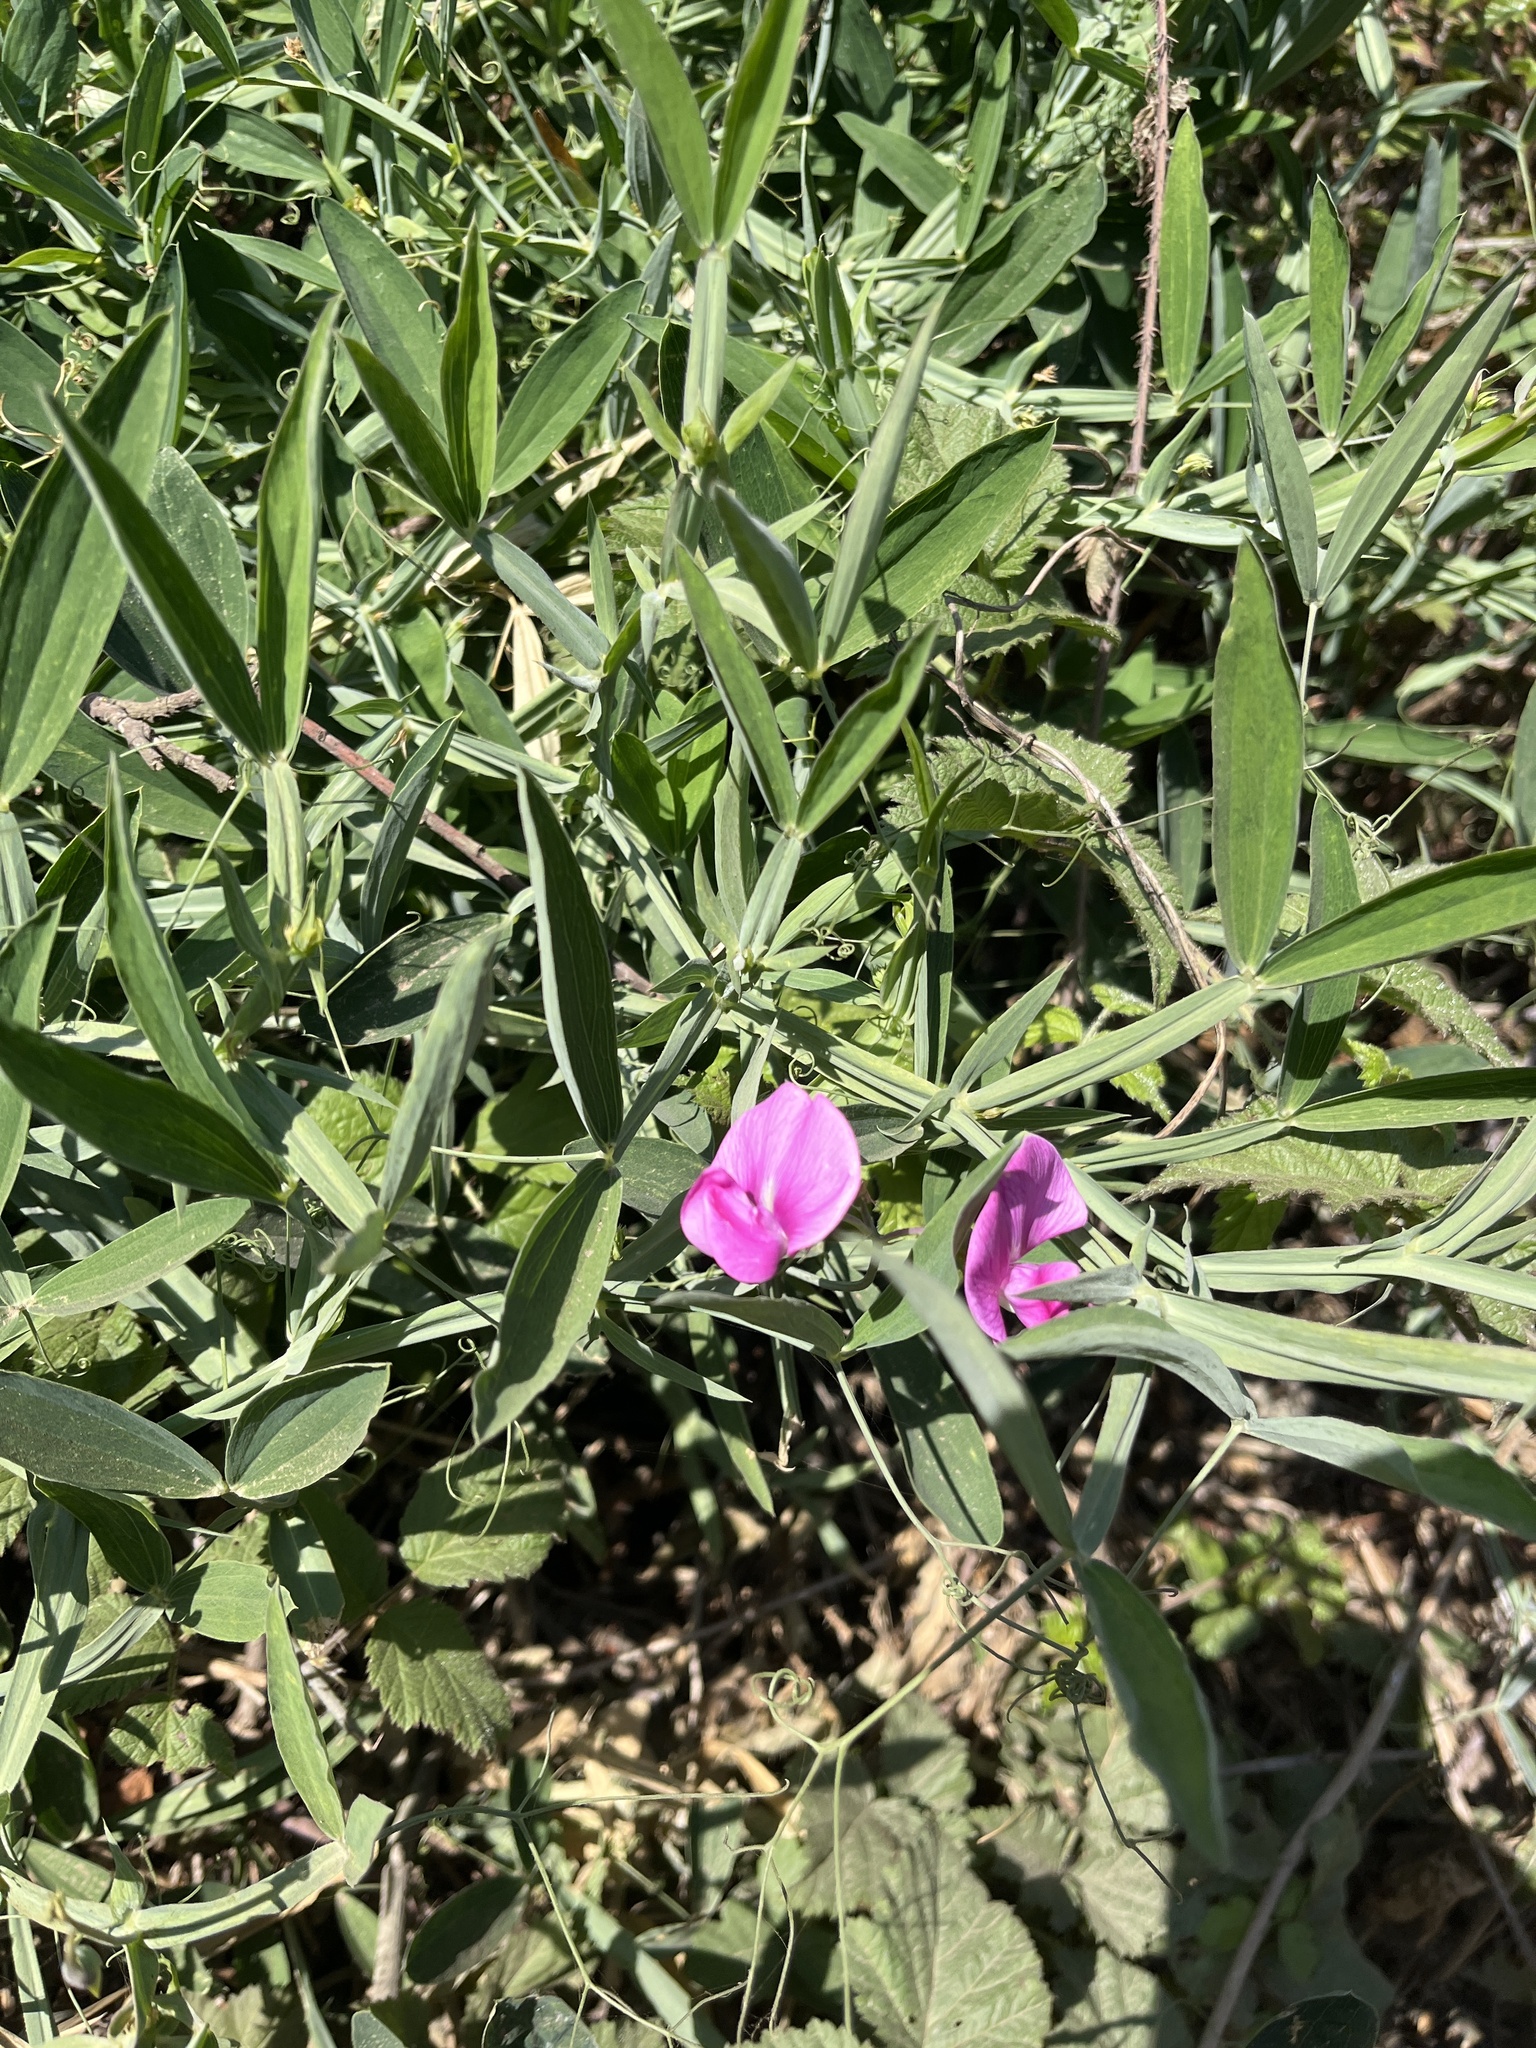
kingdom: Plantae
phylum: Tracheophyta
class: Magnoliopsida
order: Fabales
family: Fabaceae
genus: Lathyrus
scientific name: Lathyrus latifolius
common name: Perennial pea
